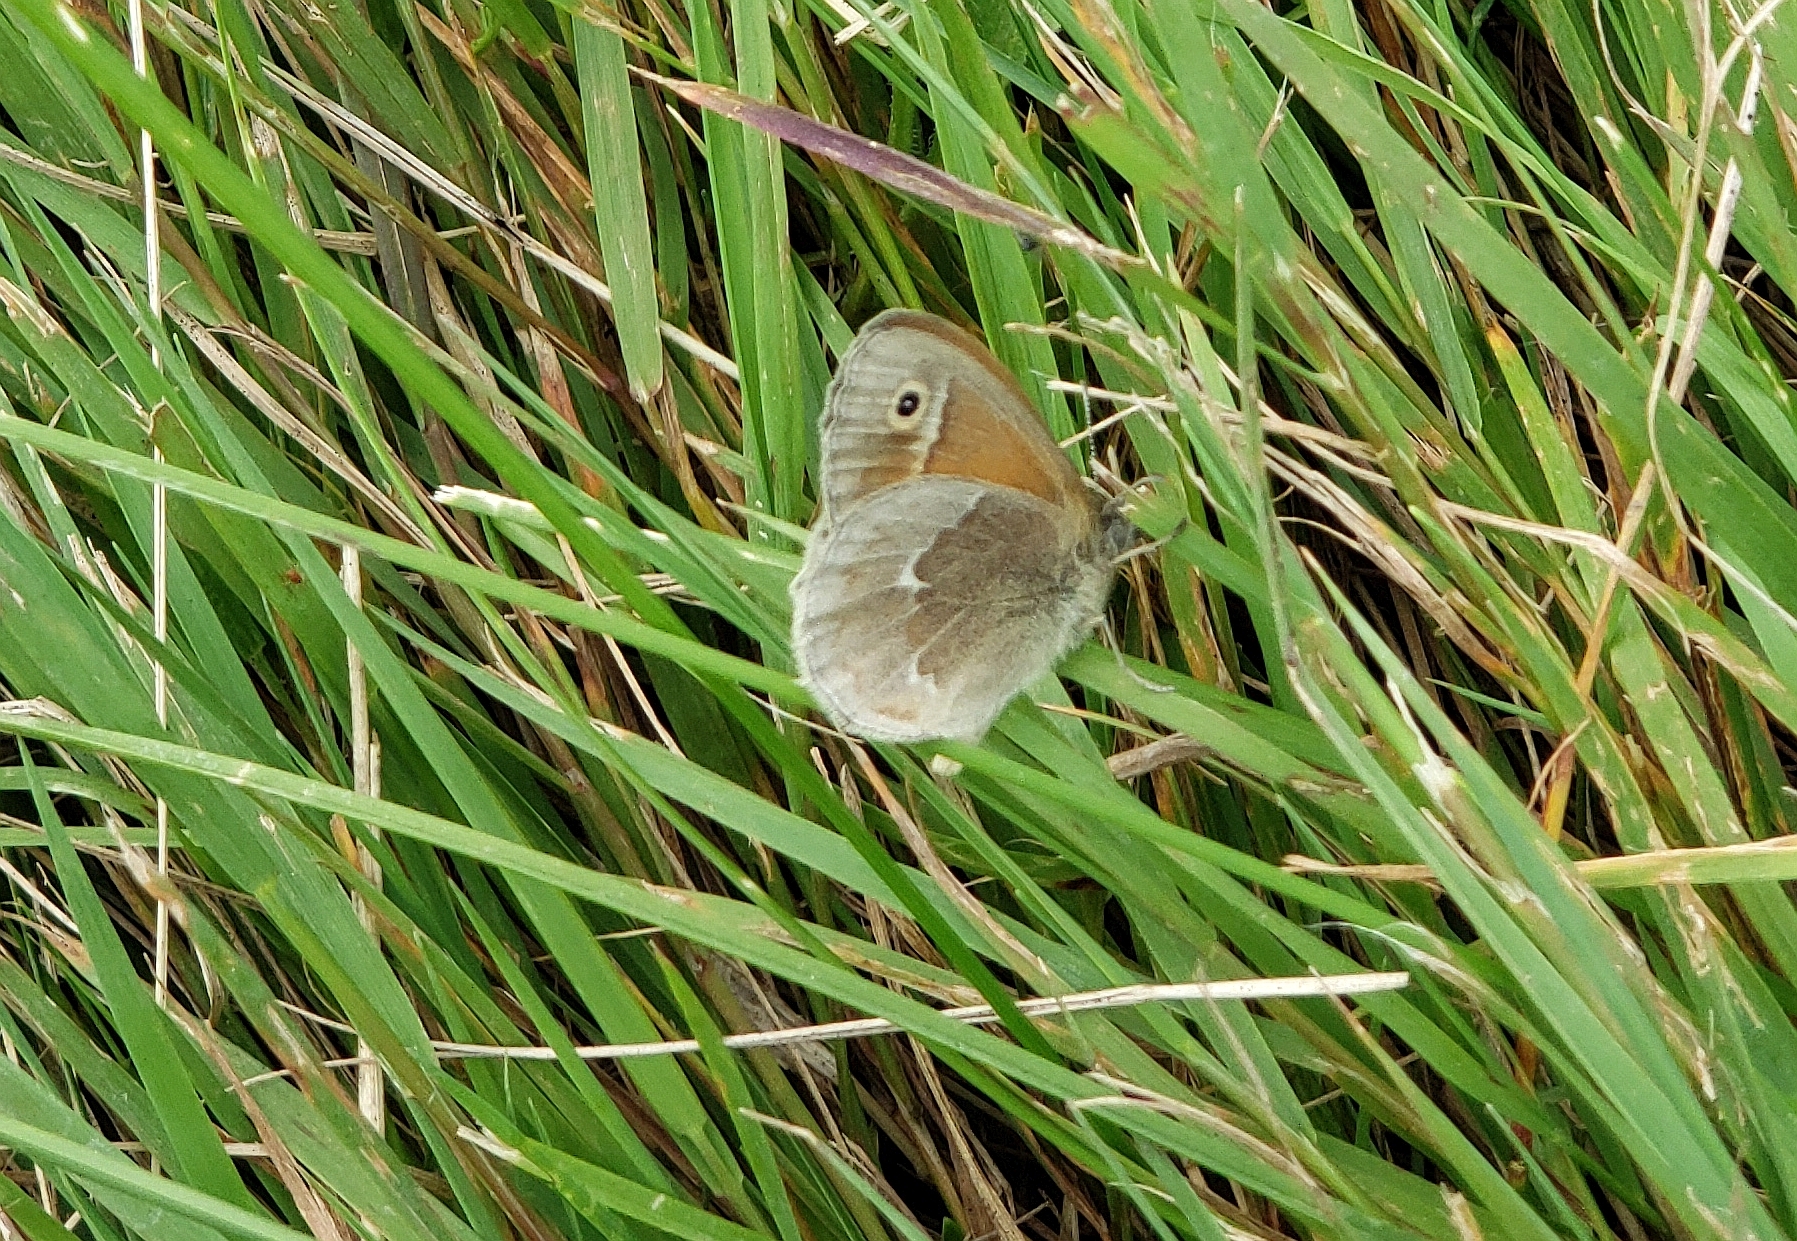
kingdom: Animalia
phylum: Arthropoda
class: Insecta
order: Lepidoptera
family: Nymphalidae
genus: Coenonympha
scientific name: Coenonympha california
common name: Common ringlet
